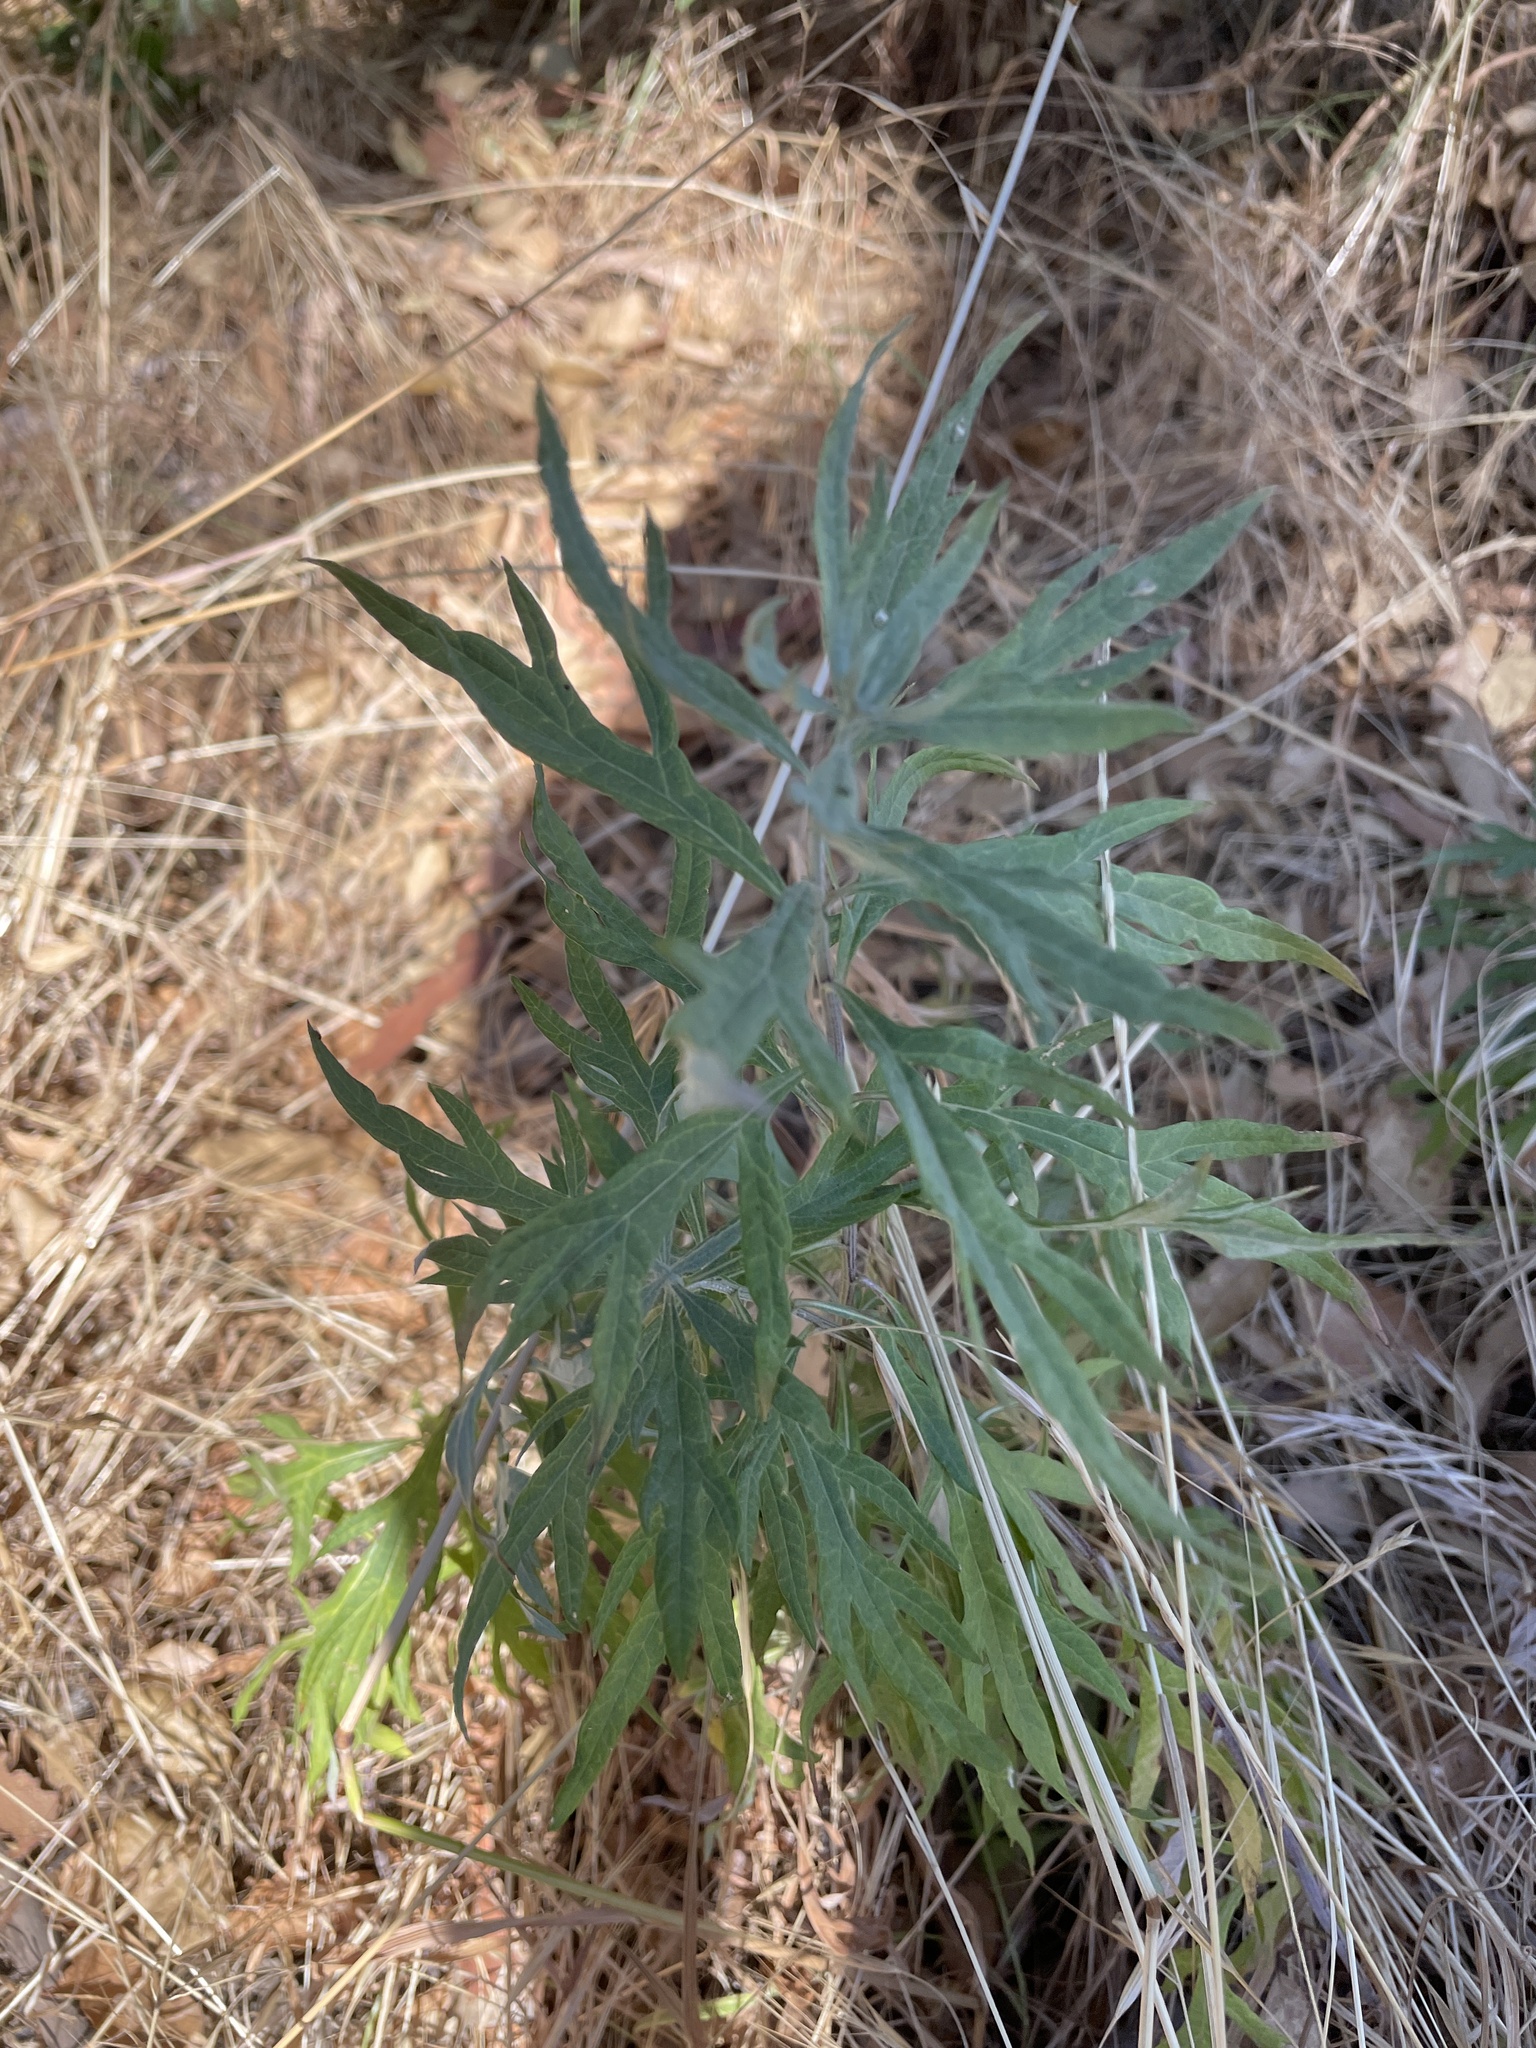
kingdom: Plantae
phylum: Tracheophyta
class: Magnoliopsida
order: Asterales
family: Asteraceae
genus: Artemisia
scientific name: Artemisia douglasiana
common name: Northwest mugwort
